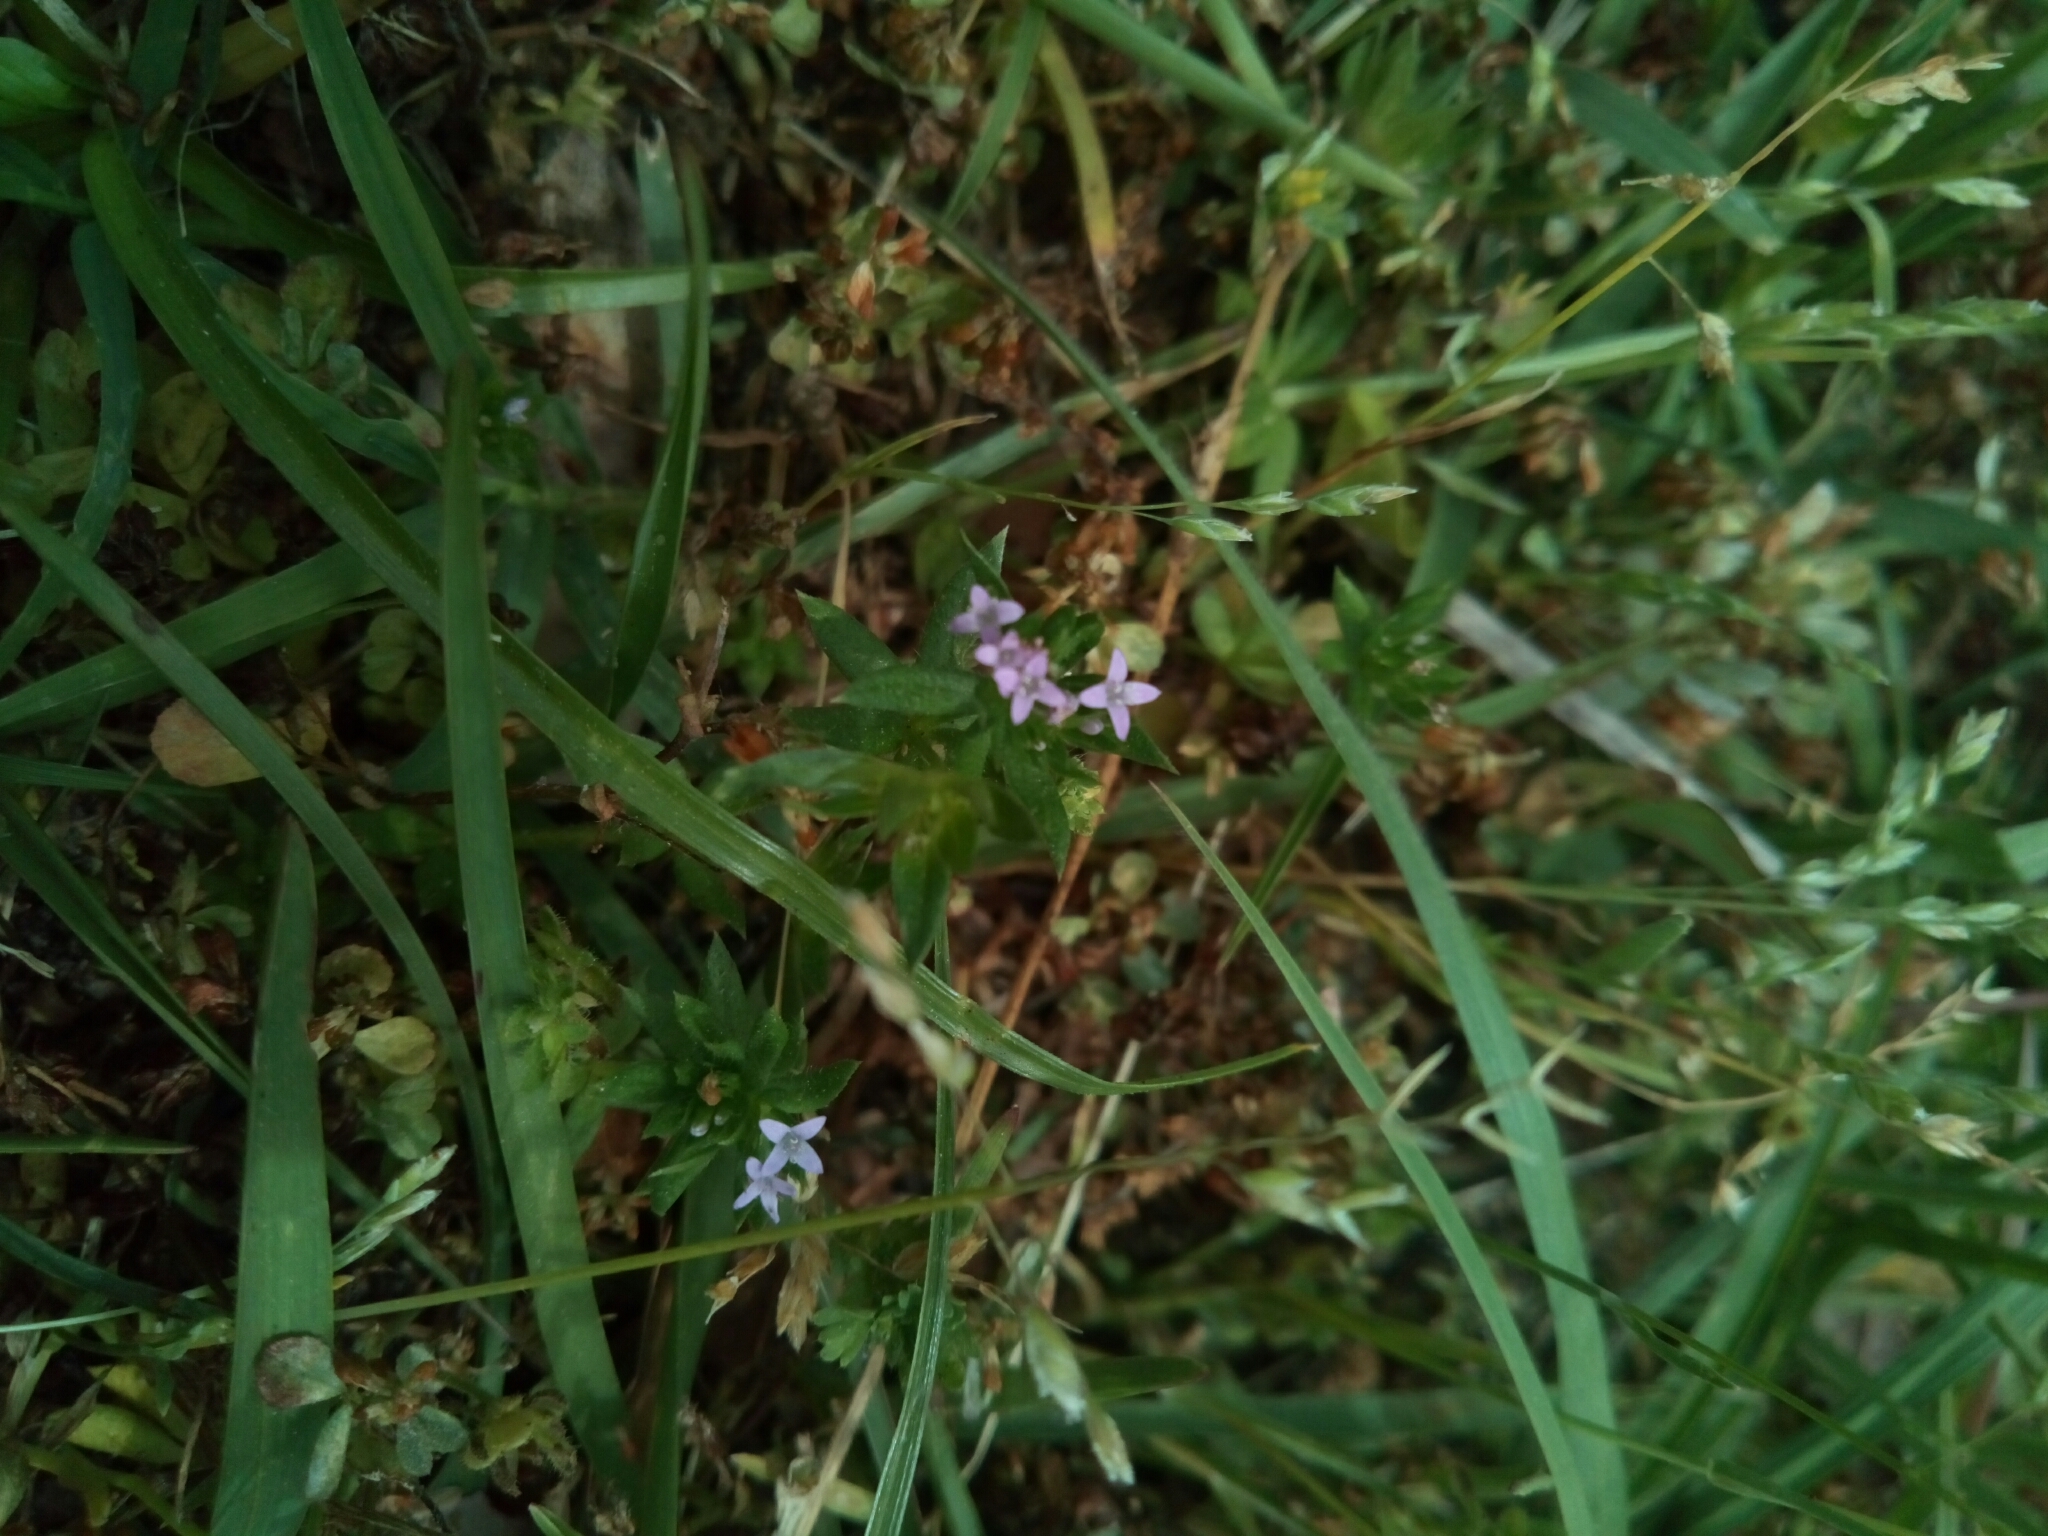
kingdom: Plantae
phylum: Tracheophyta
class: Magnoliopsida
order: Gentianales
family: Rubiaceae
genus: Sherardia
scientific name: Sherardia arvensis
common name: Field madder
